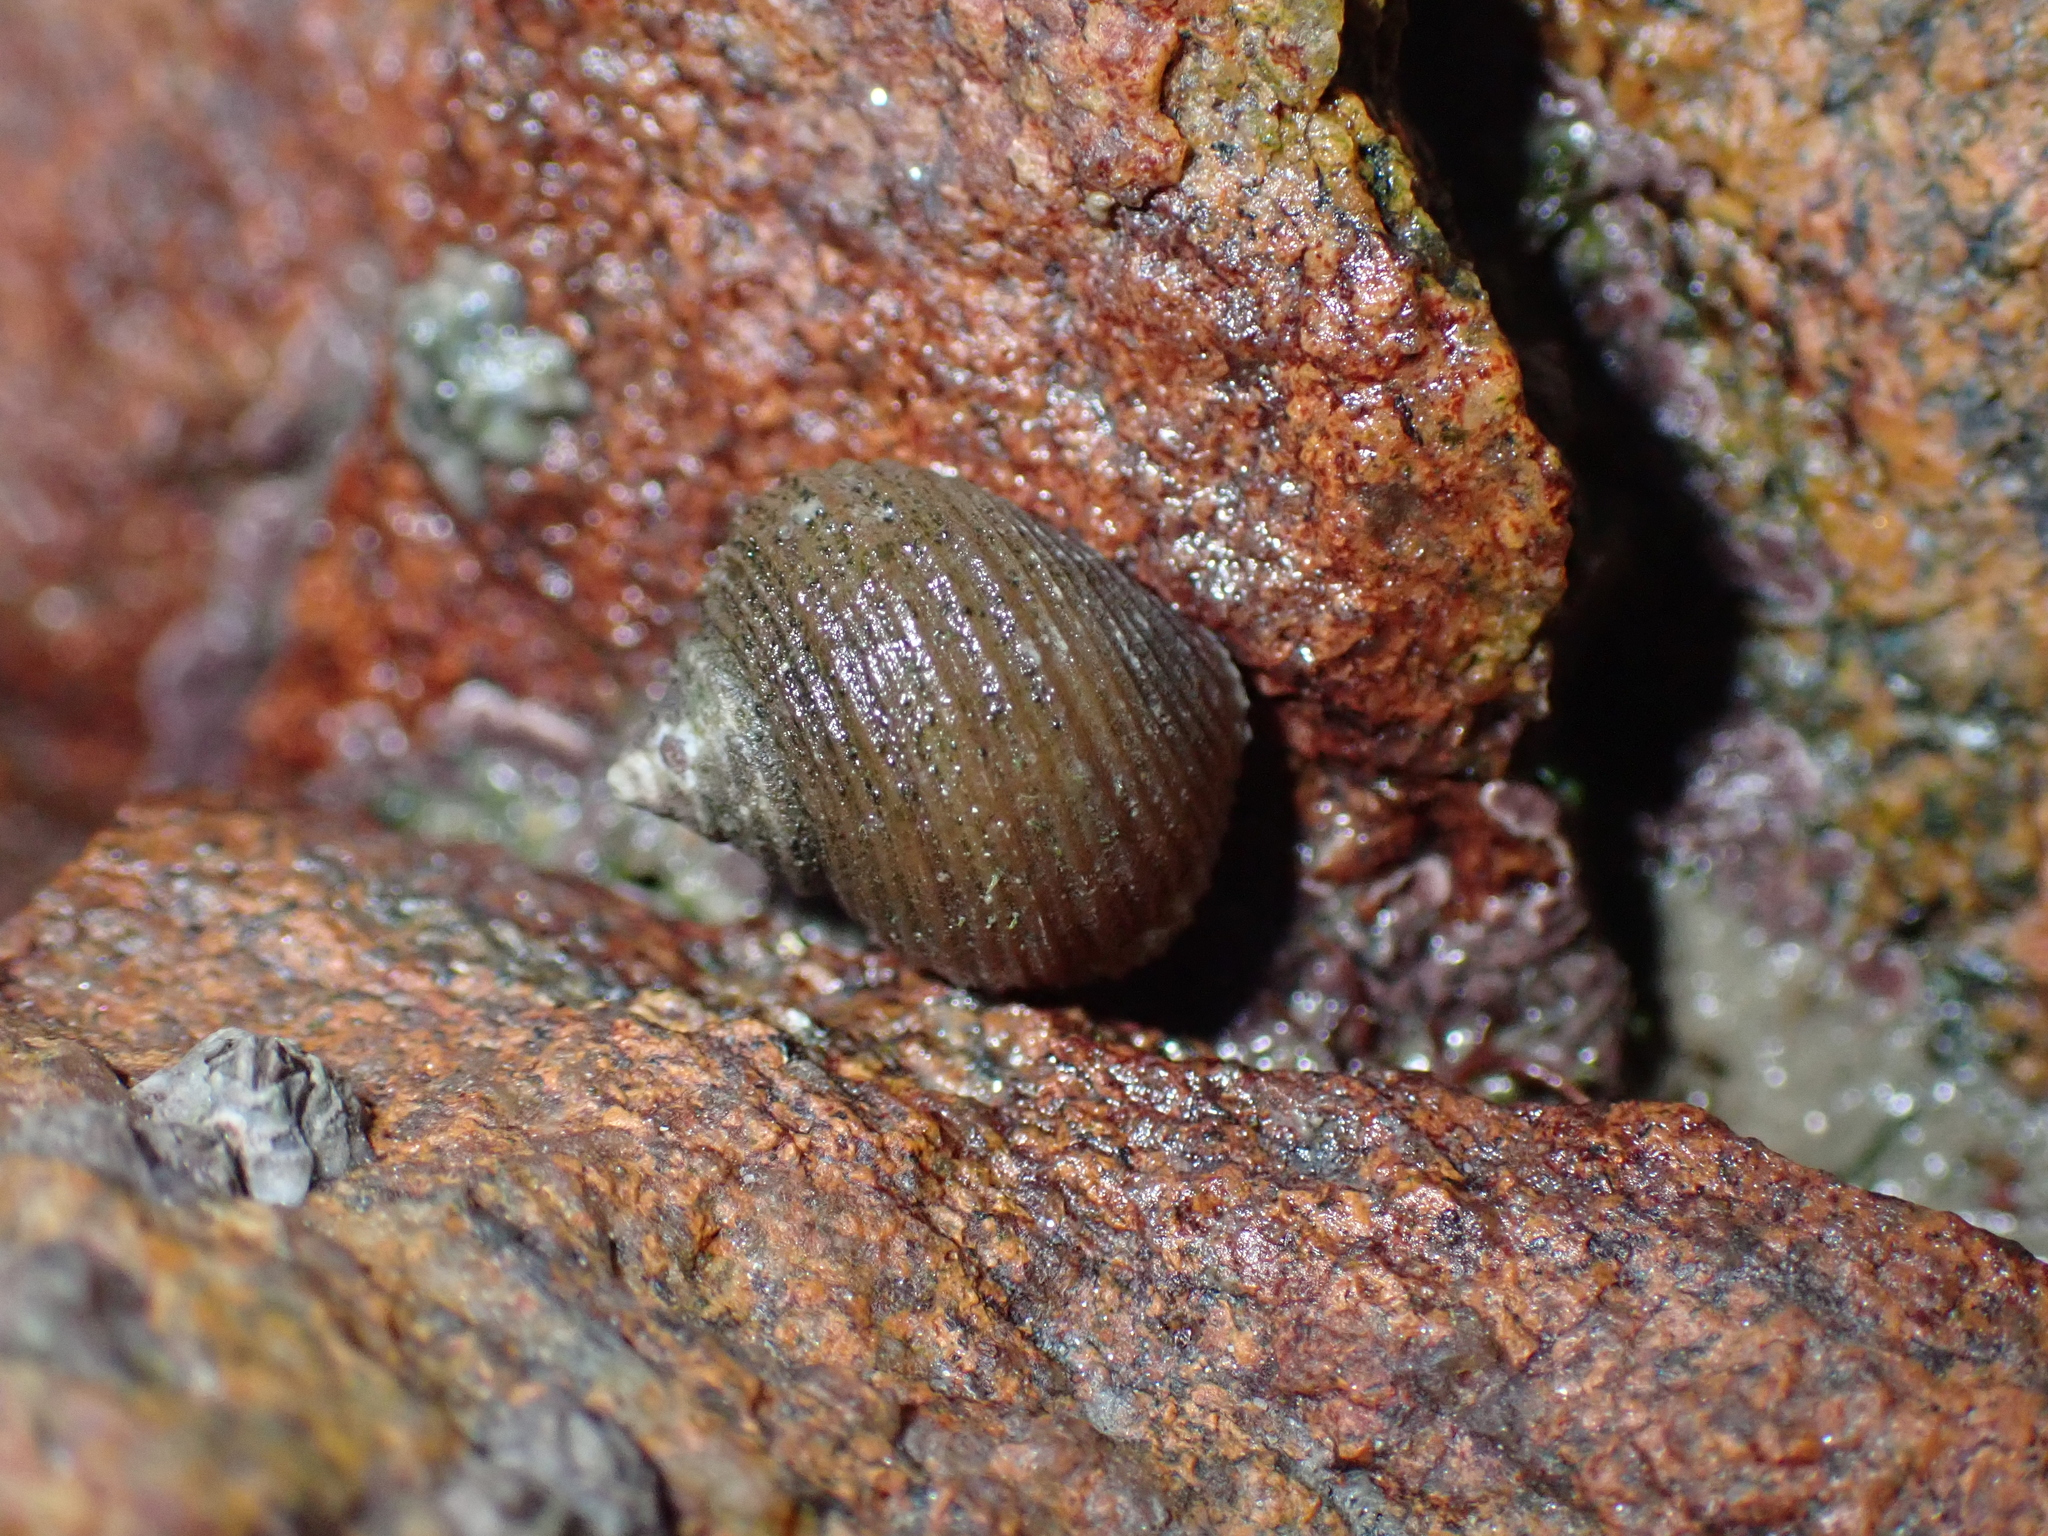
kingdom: Animalia
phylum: Mollusca
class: Gastropoda
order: Littorinimorpha
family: Littorinidae
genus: Littorina
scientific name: Littorina saxatilis
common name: Black-lined periwinkle
